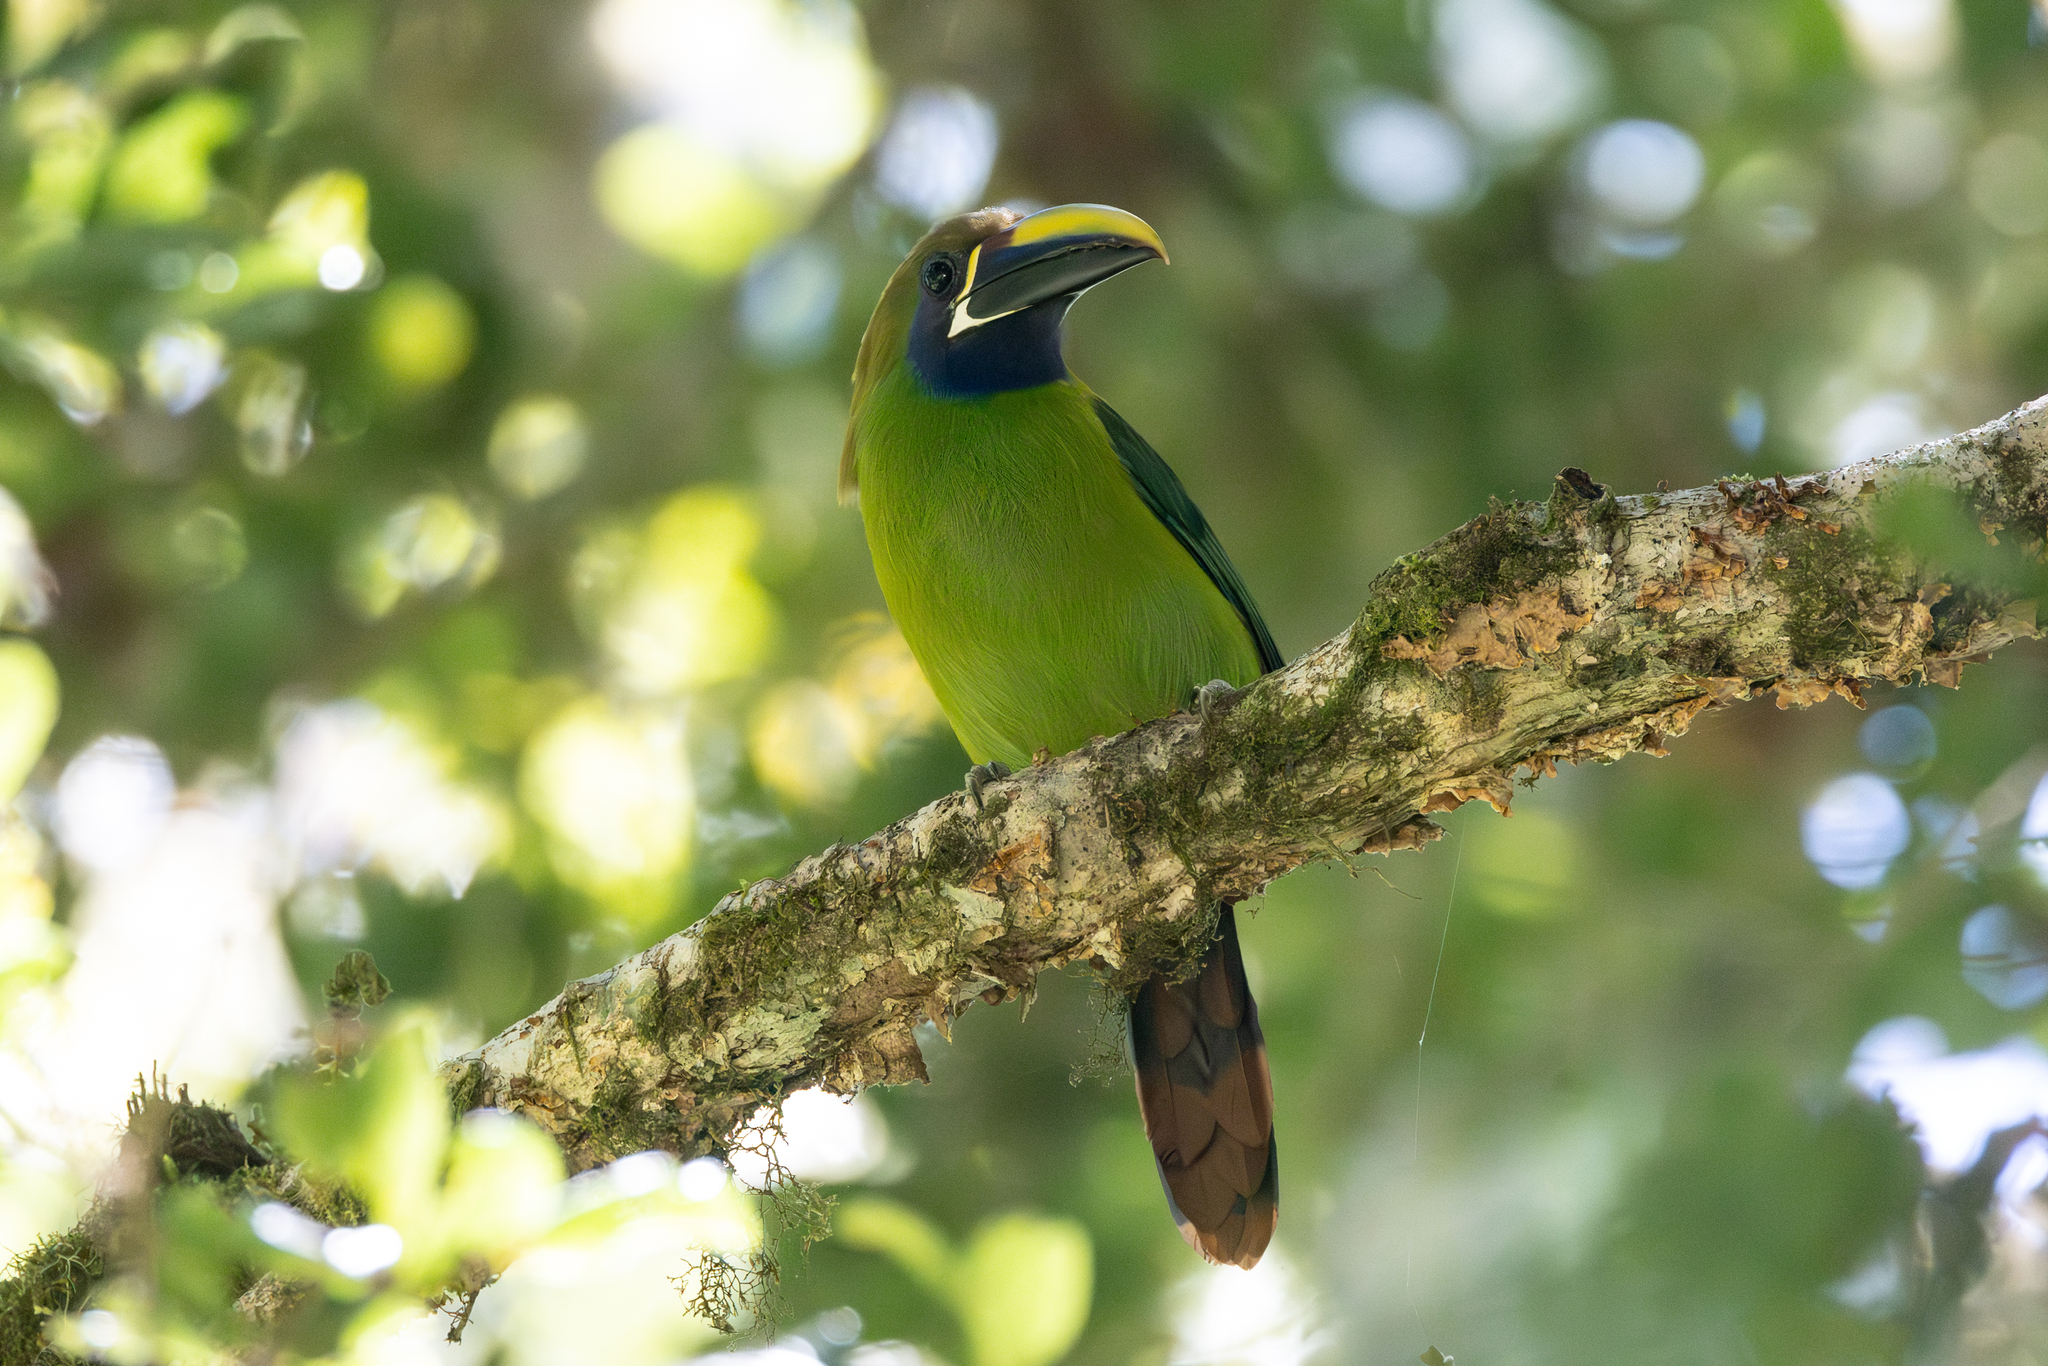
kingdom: Animalia
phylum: Chordata
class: Aves
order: Piciformes
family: Ramphastidae
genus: Aulacorhynchus
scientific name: Aulacorhynchus prasinus
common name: Emerald toucanet
